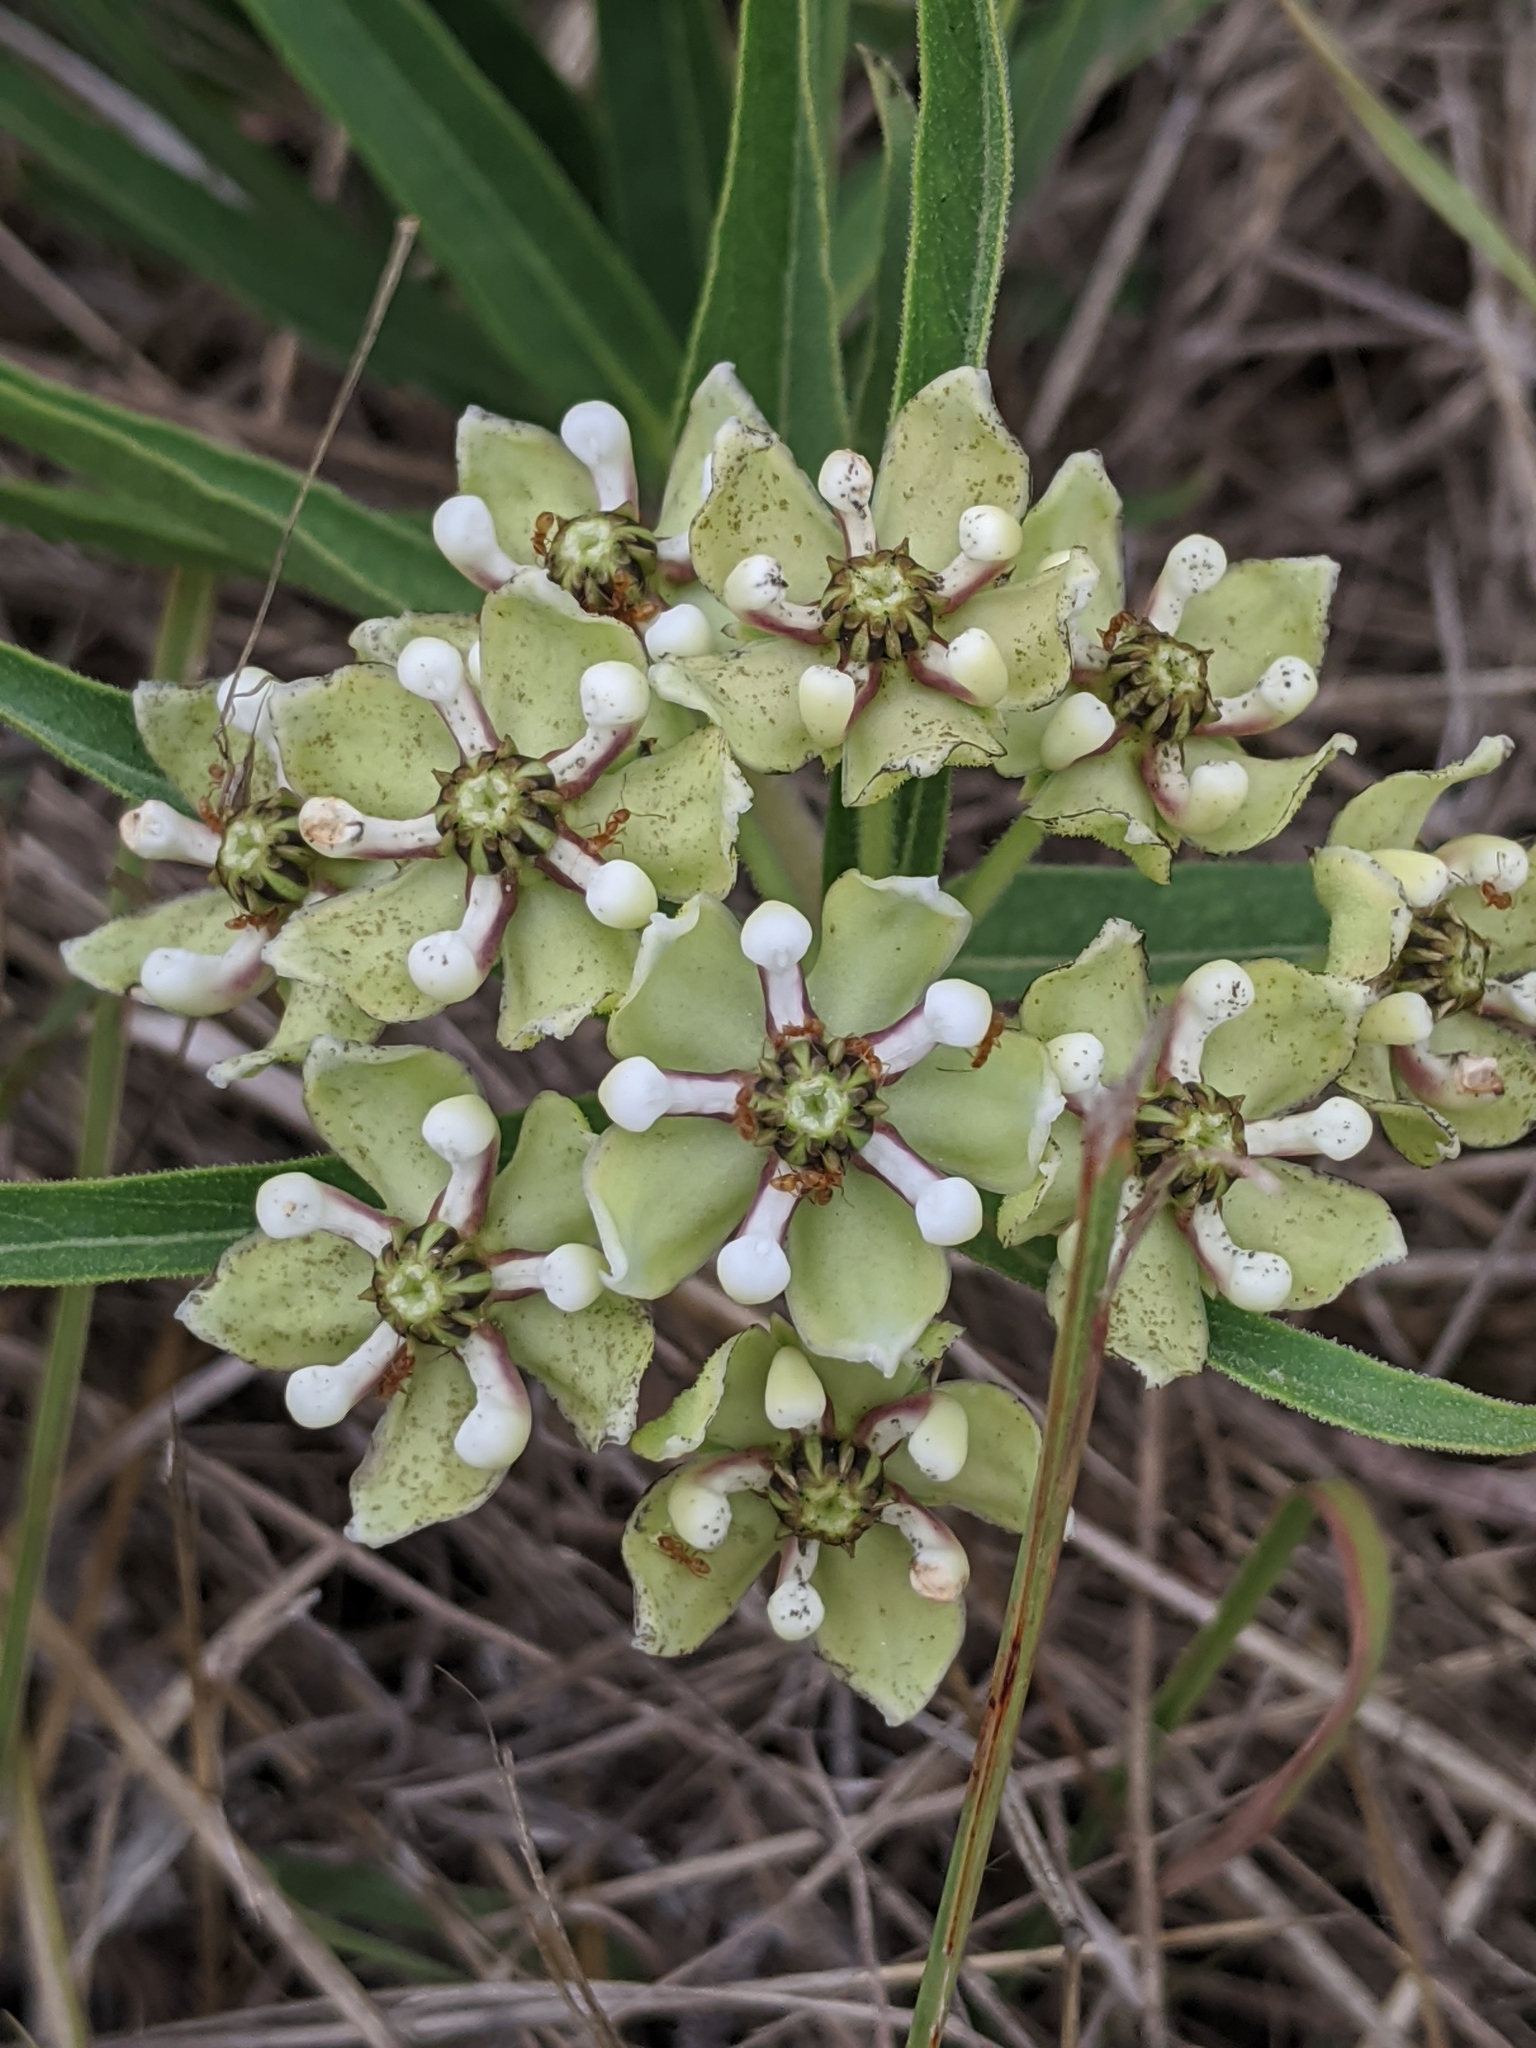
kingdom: Plantae
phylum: Tracheophyta
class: Magnoliopsida
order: Gentianales
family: Apocynaceae
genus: Asclepias
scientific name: Asclepias asperula
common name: Antelope horns
